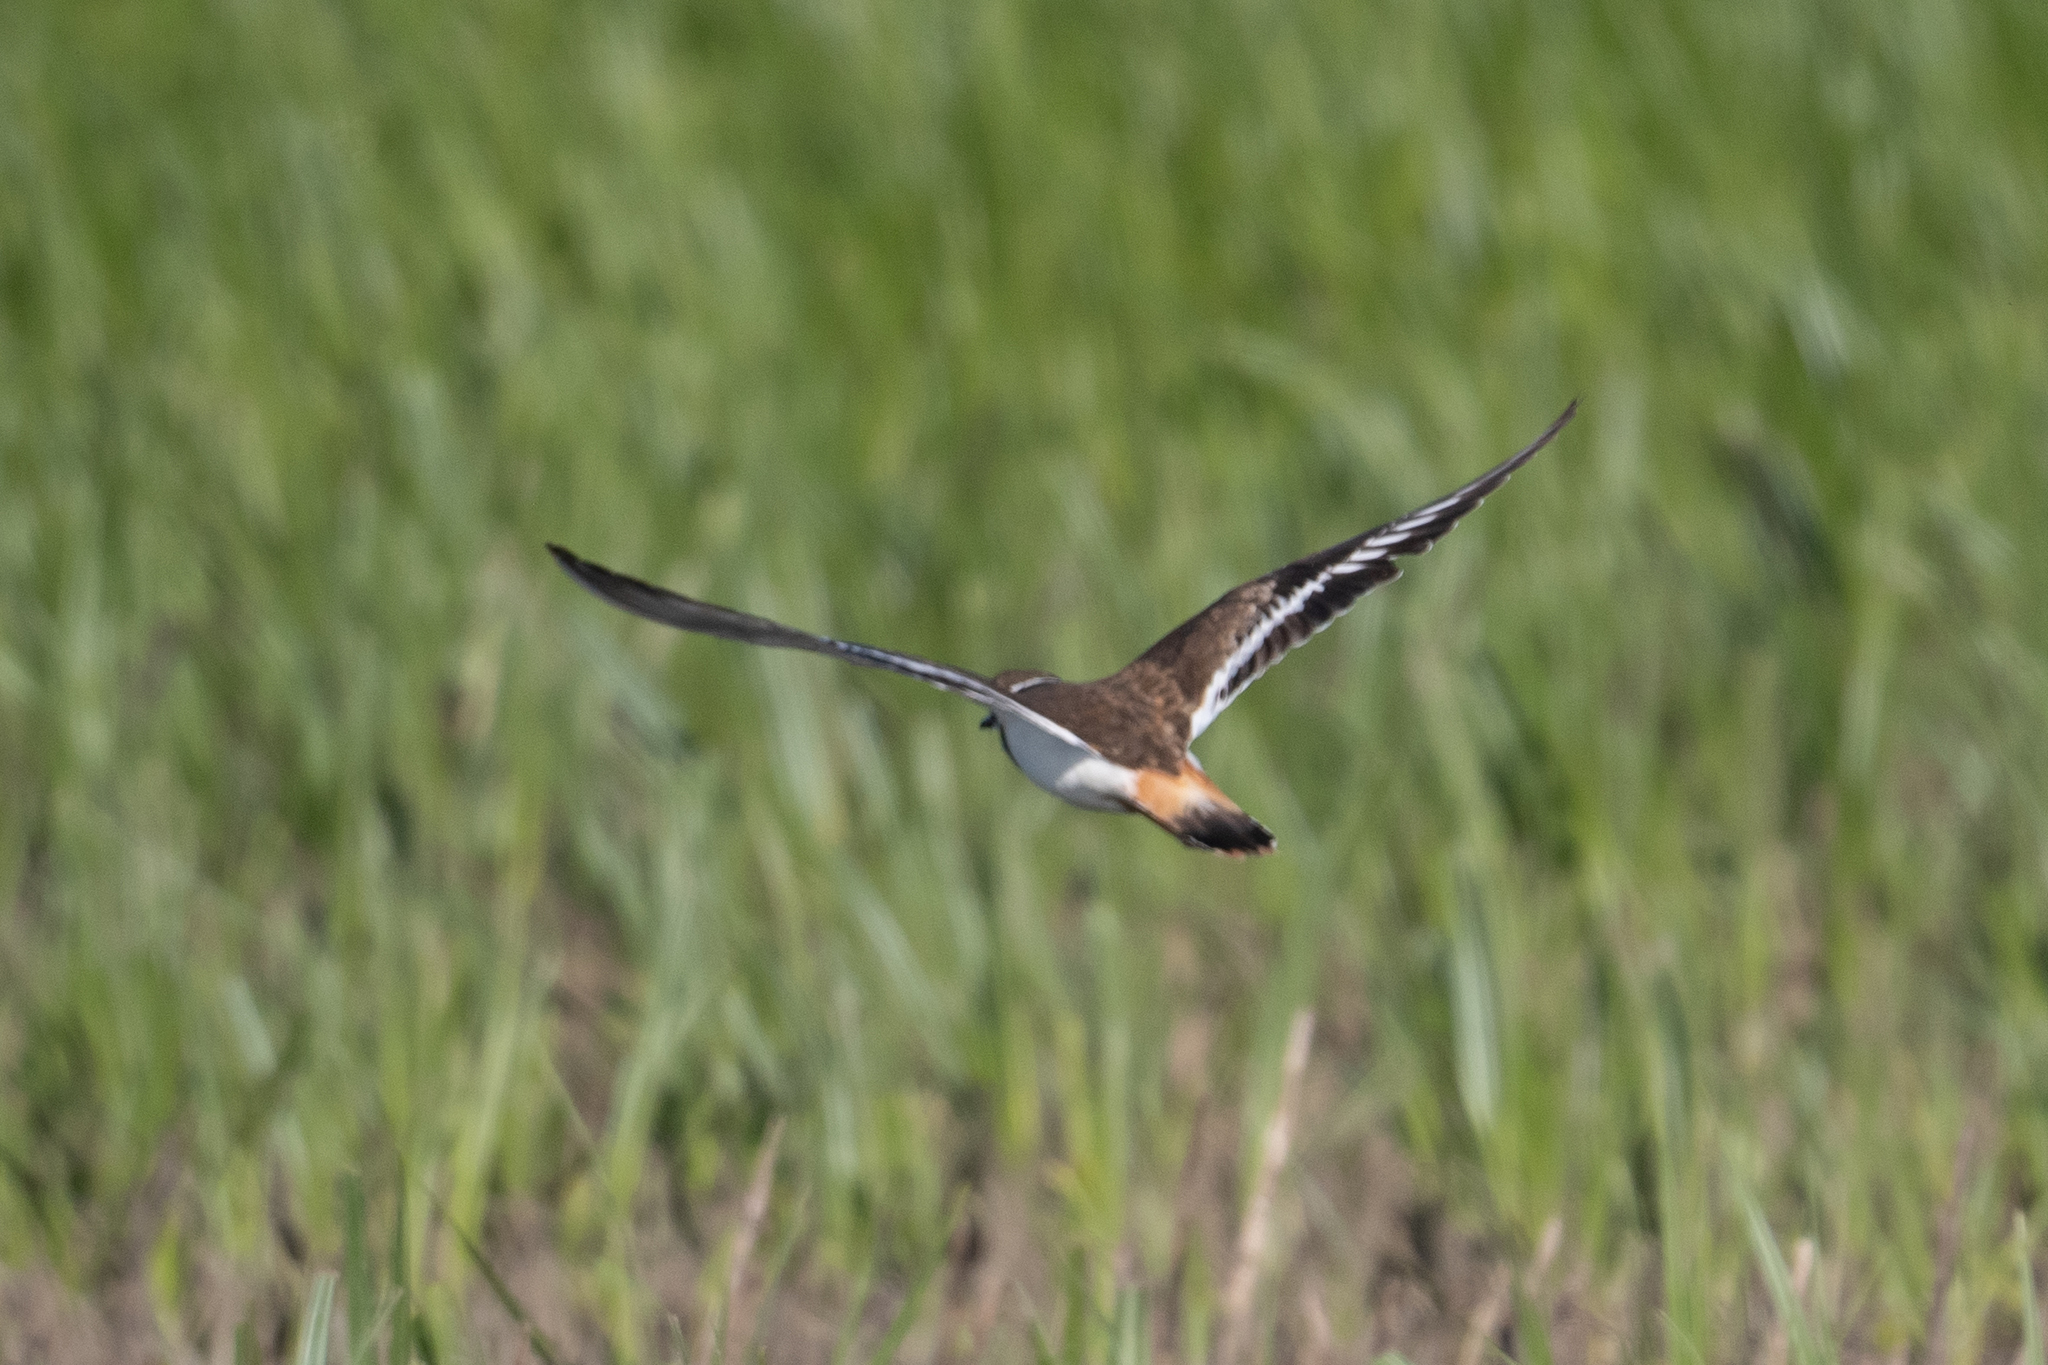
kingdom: Animalia
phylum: Chordata
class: Aves
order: Charadriiformes
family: Charadriidae
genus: Charadrius
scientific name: Charadrius vociferus
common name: Killdeer
